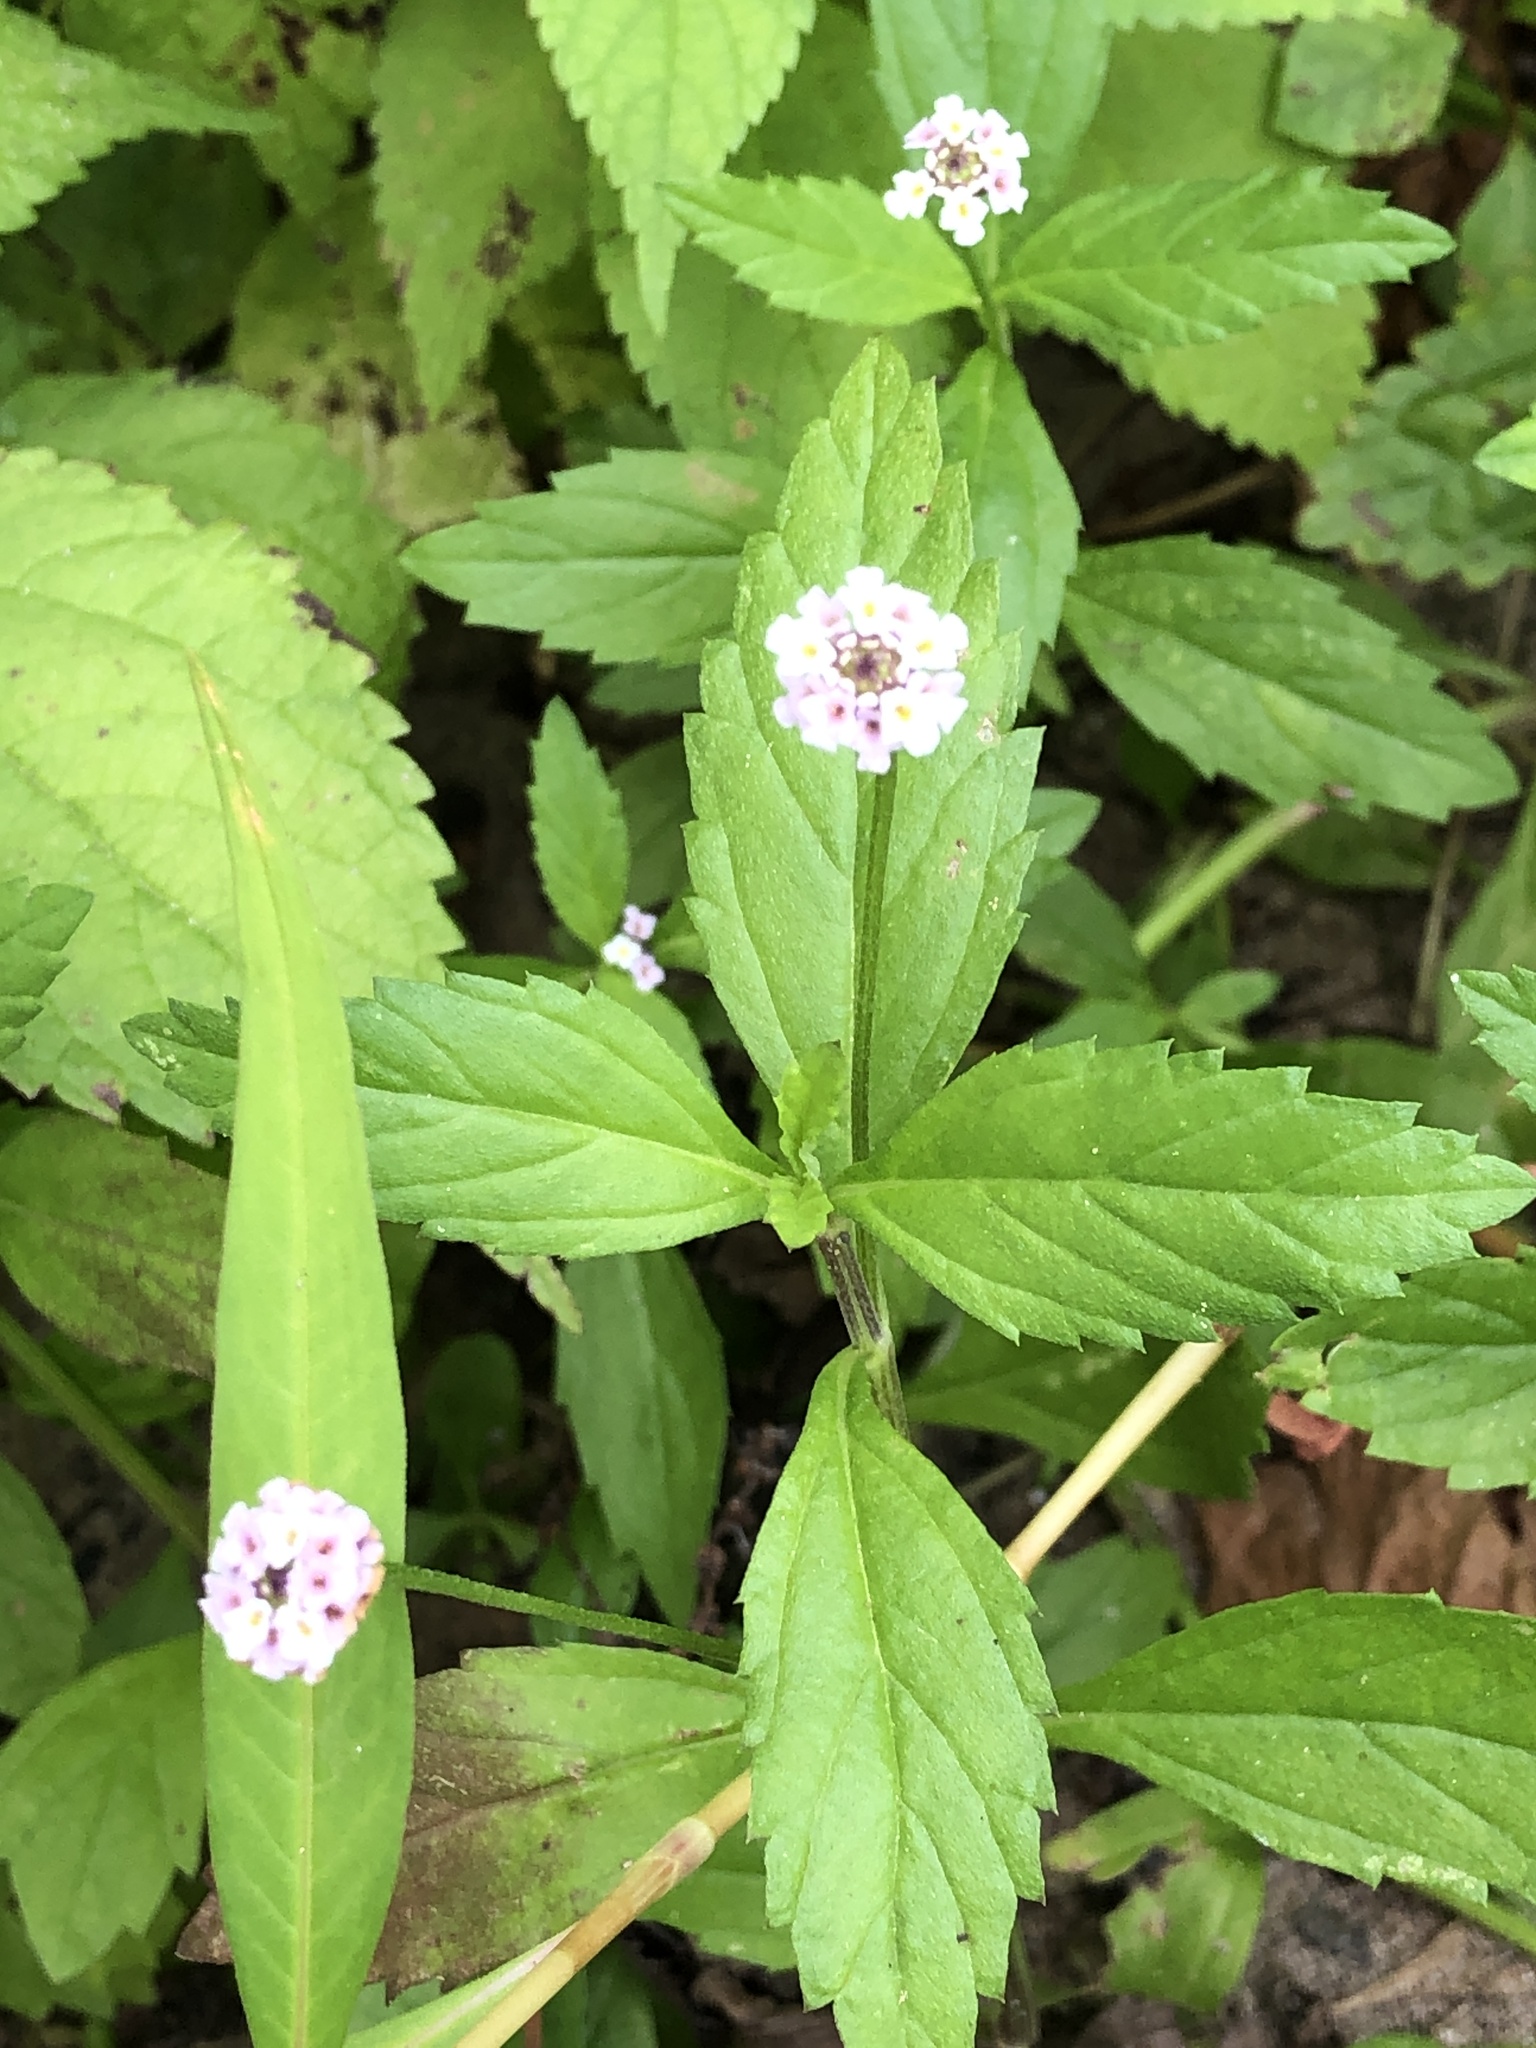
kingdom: Plantae
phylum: Tracheophyta
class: Magnoliopsida
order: Lamiales
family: Verbenaceae
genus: Phyla
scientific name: Phyla lanceolata
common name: Northern fogfruit
